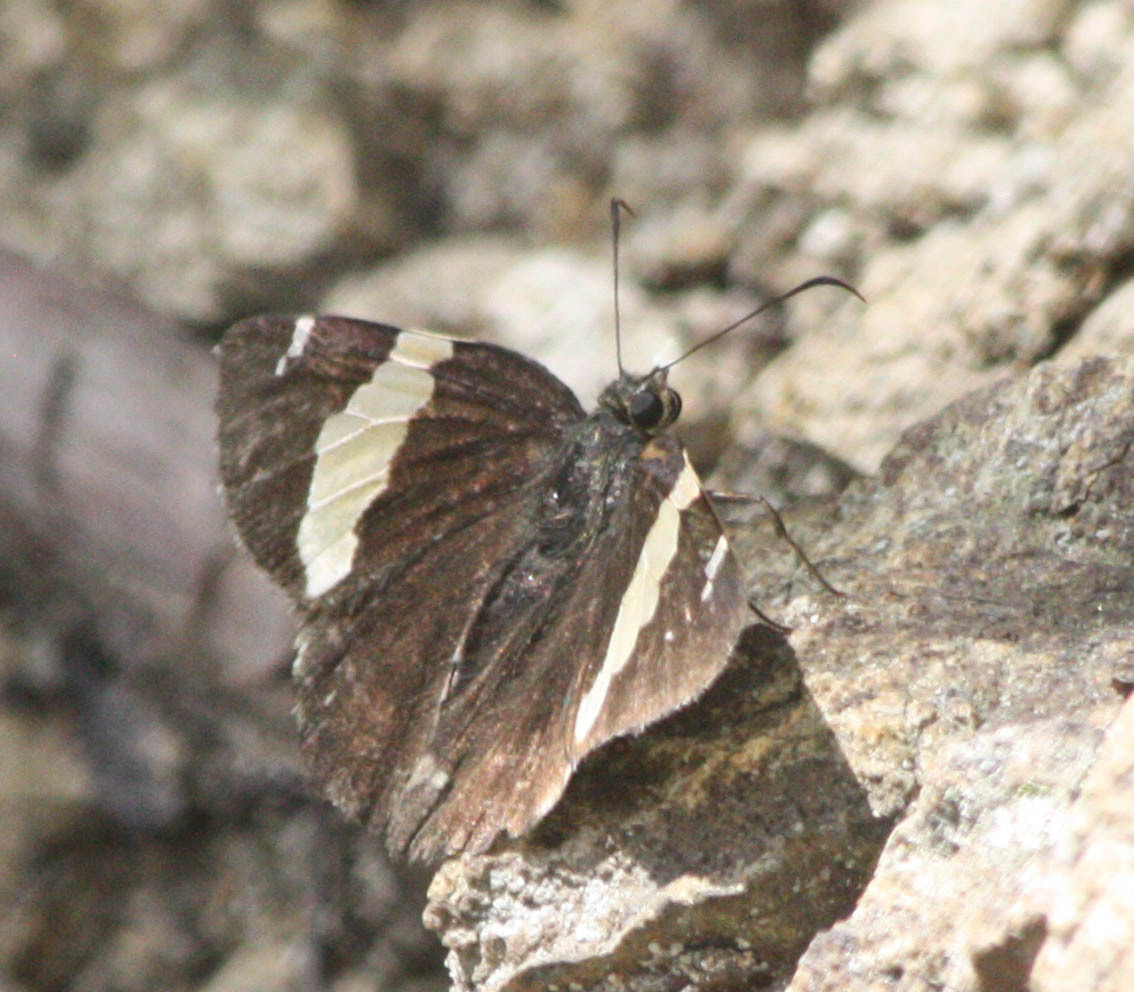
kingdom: Animalia
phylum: Arthropoda
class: Arachnida
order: Scorpiones
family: Bothriuridae
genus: Telegonus
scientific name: Telegonus cellus
